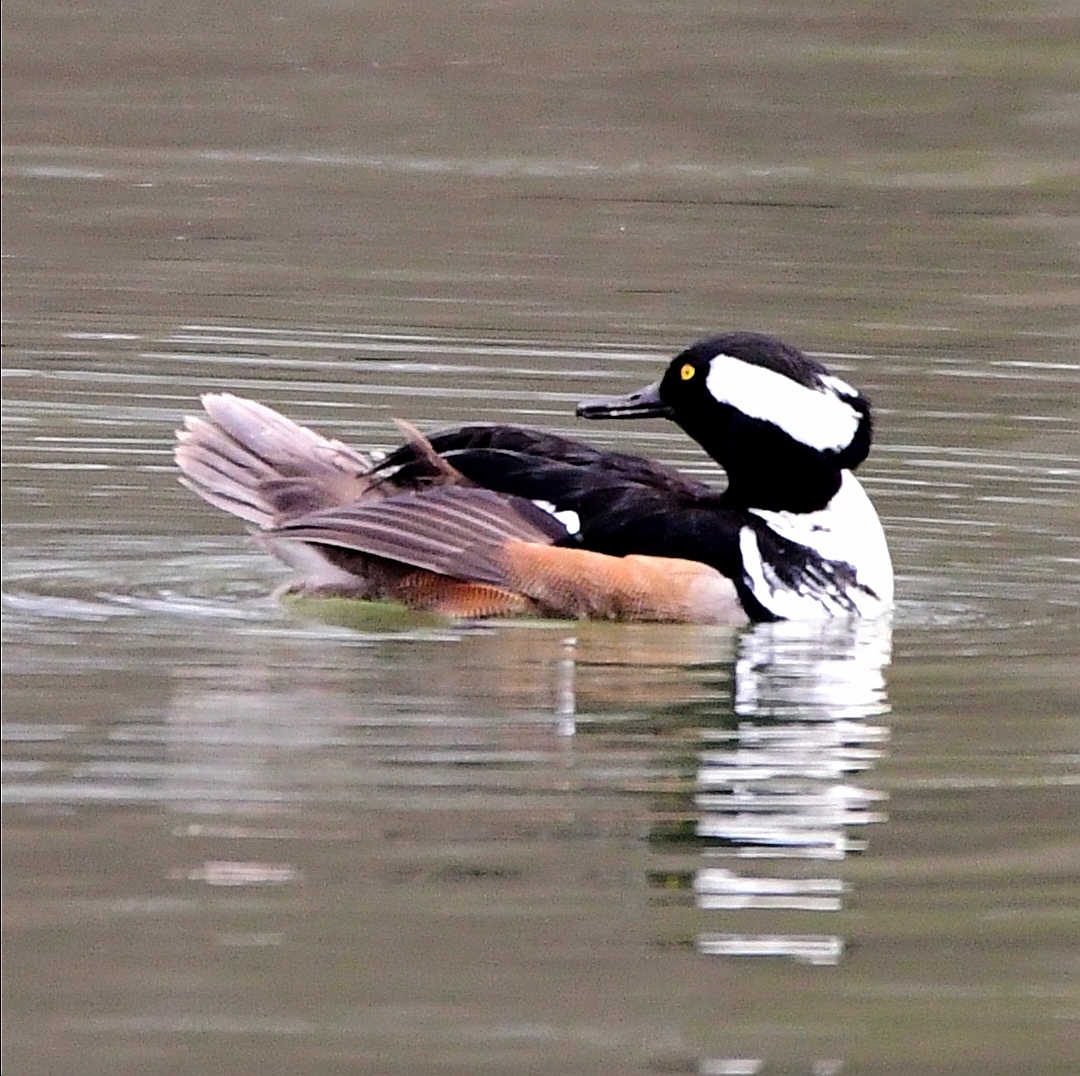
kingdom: Animalia
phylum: Chordata
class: Aves
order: Anseriformes
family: Anatidae
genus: Lophodytes
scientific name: Lophodytes cucullatus
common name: Hooded merganser
